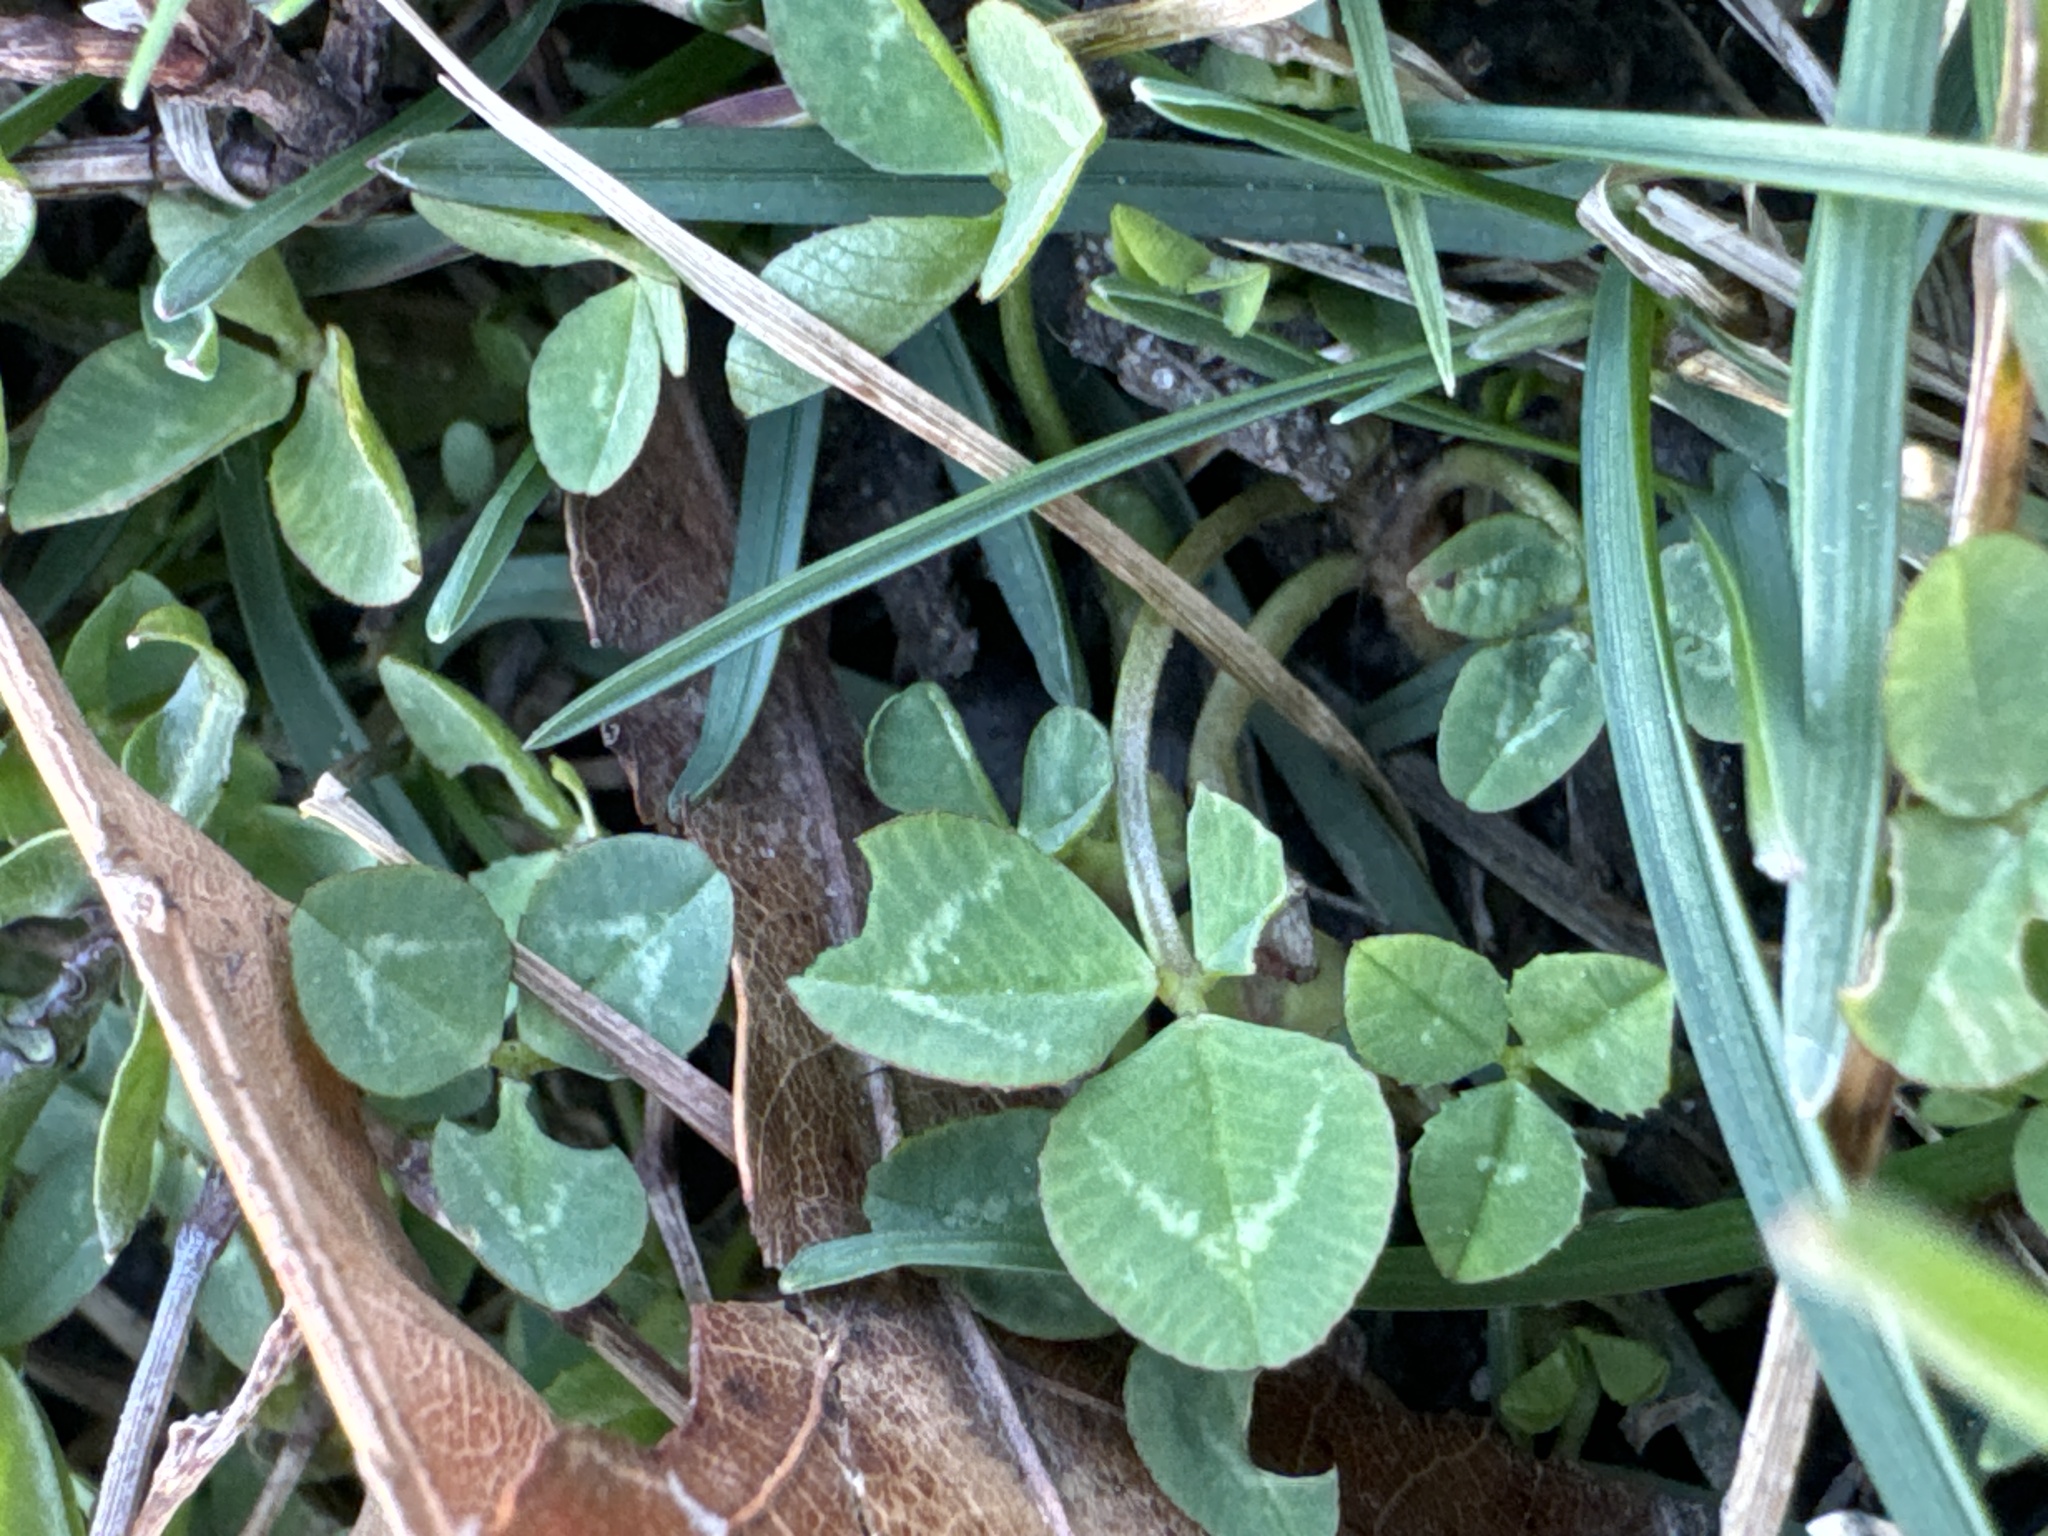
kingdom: Plantae
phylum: Tracheophyta
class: Magnoliopsida
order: Fabales
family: Fabaceae
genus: Trifolium
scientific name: Trifolium repens
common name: White clover
